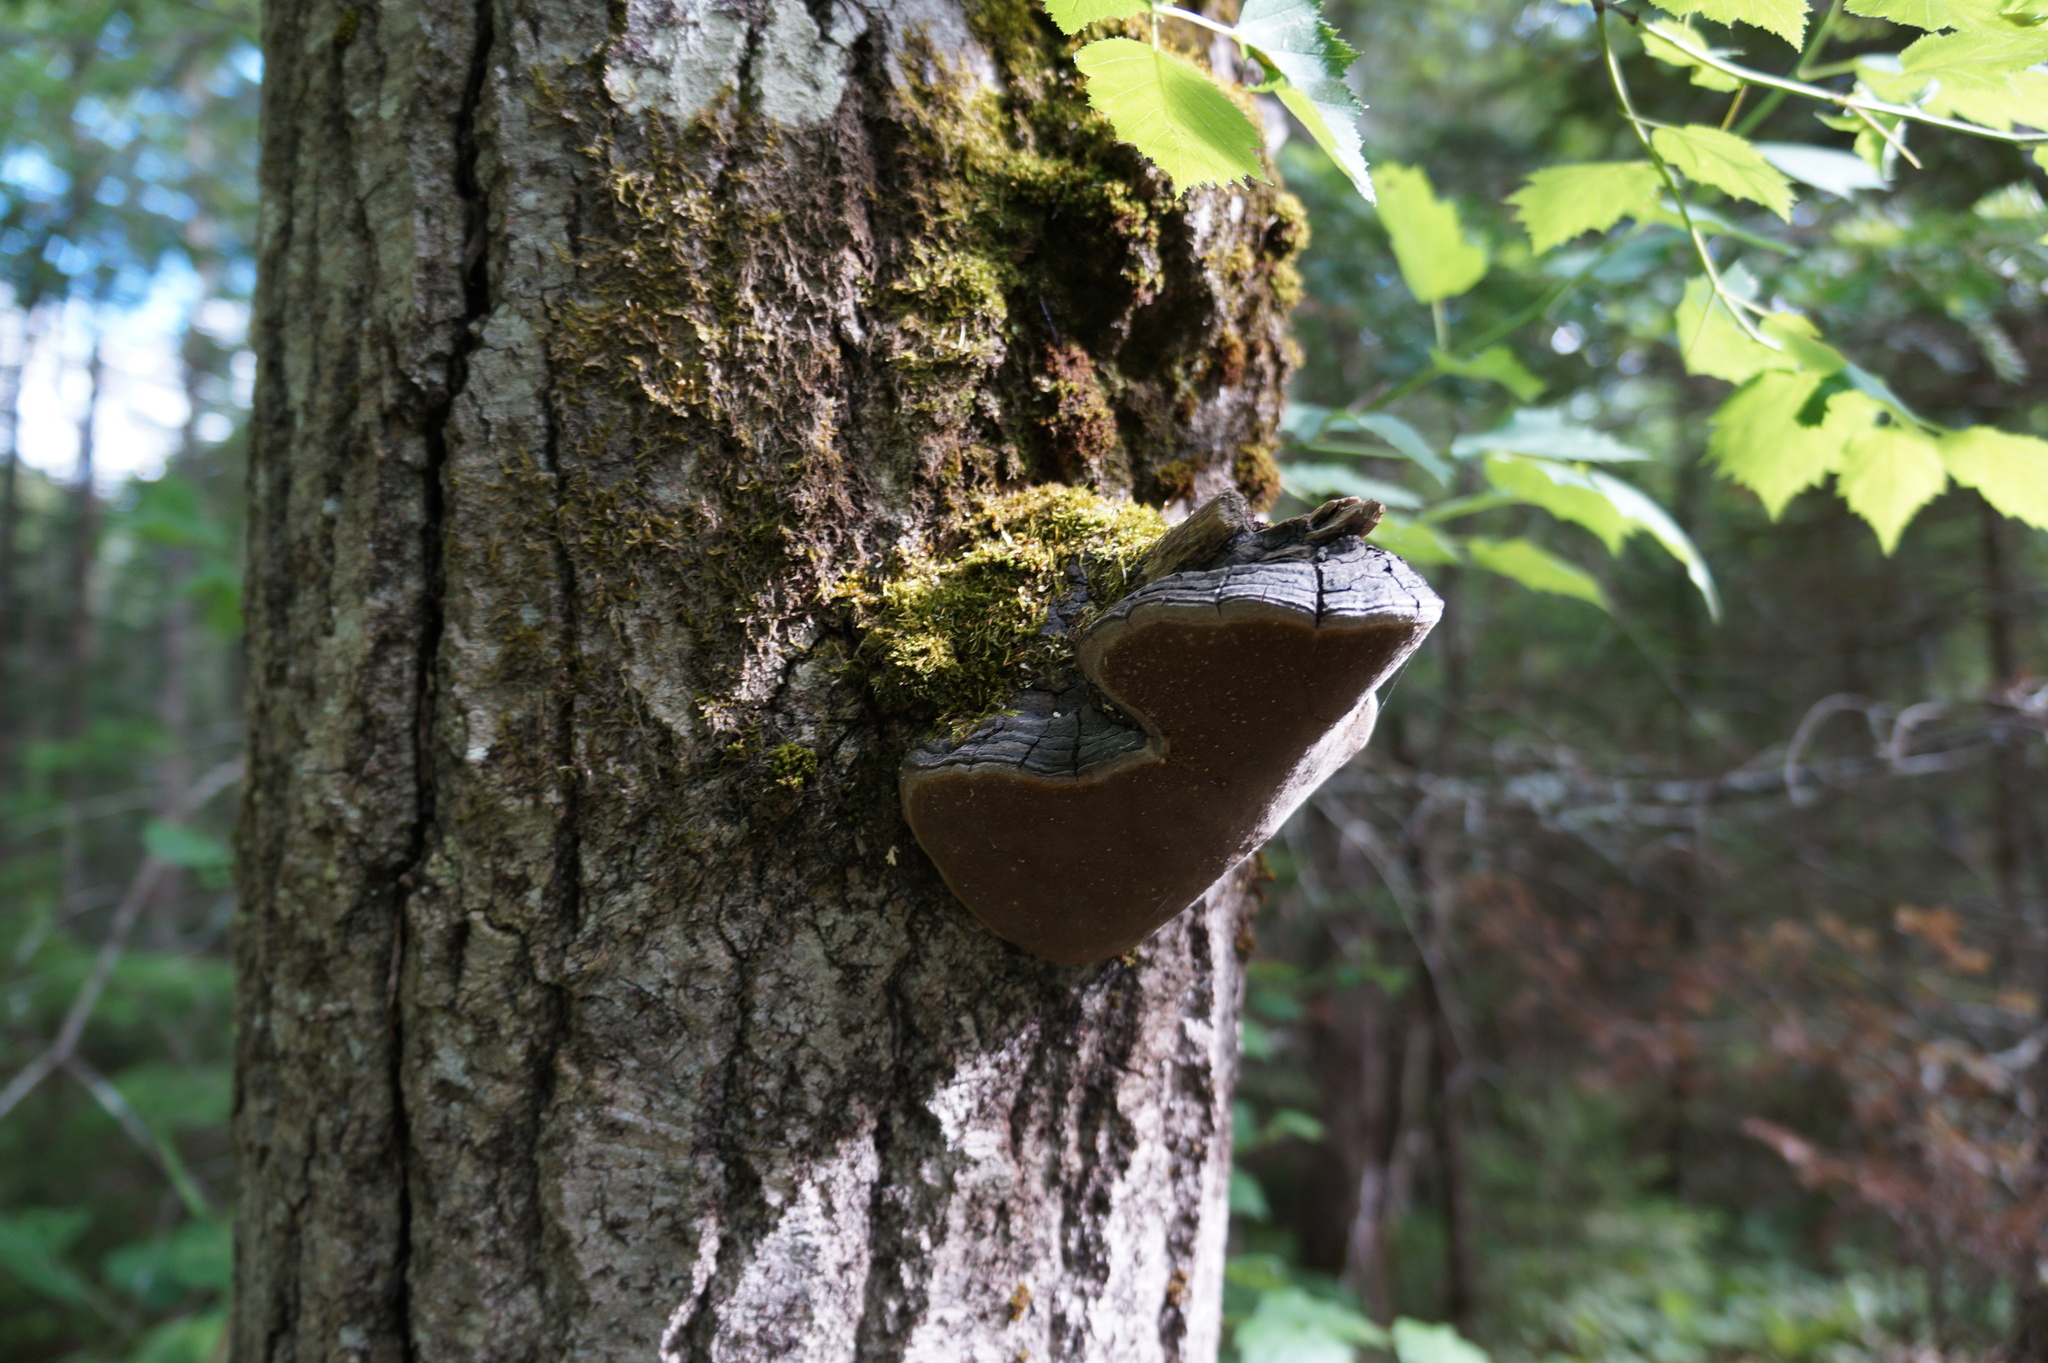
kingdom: Fungi
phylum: Basidiomycota
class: Agaricomycetes
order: Hymenochaetales
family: Hymenochaetaceae
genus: Phellinus
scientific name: Phellinus tremulae
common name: Aspen bracket
